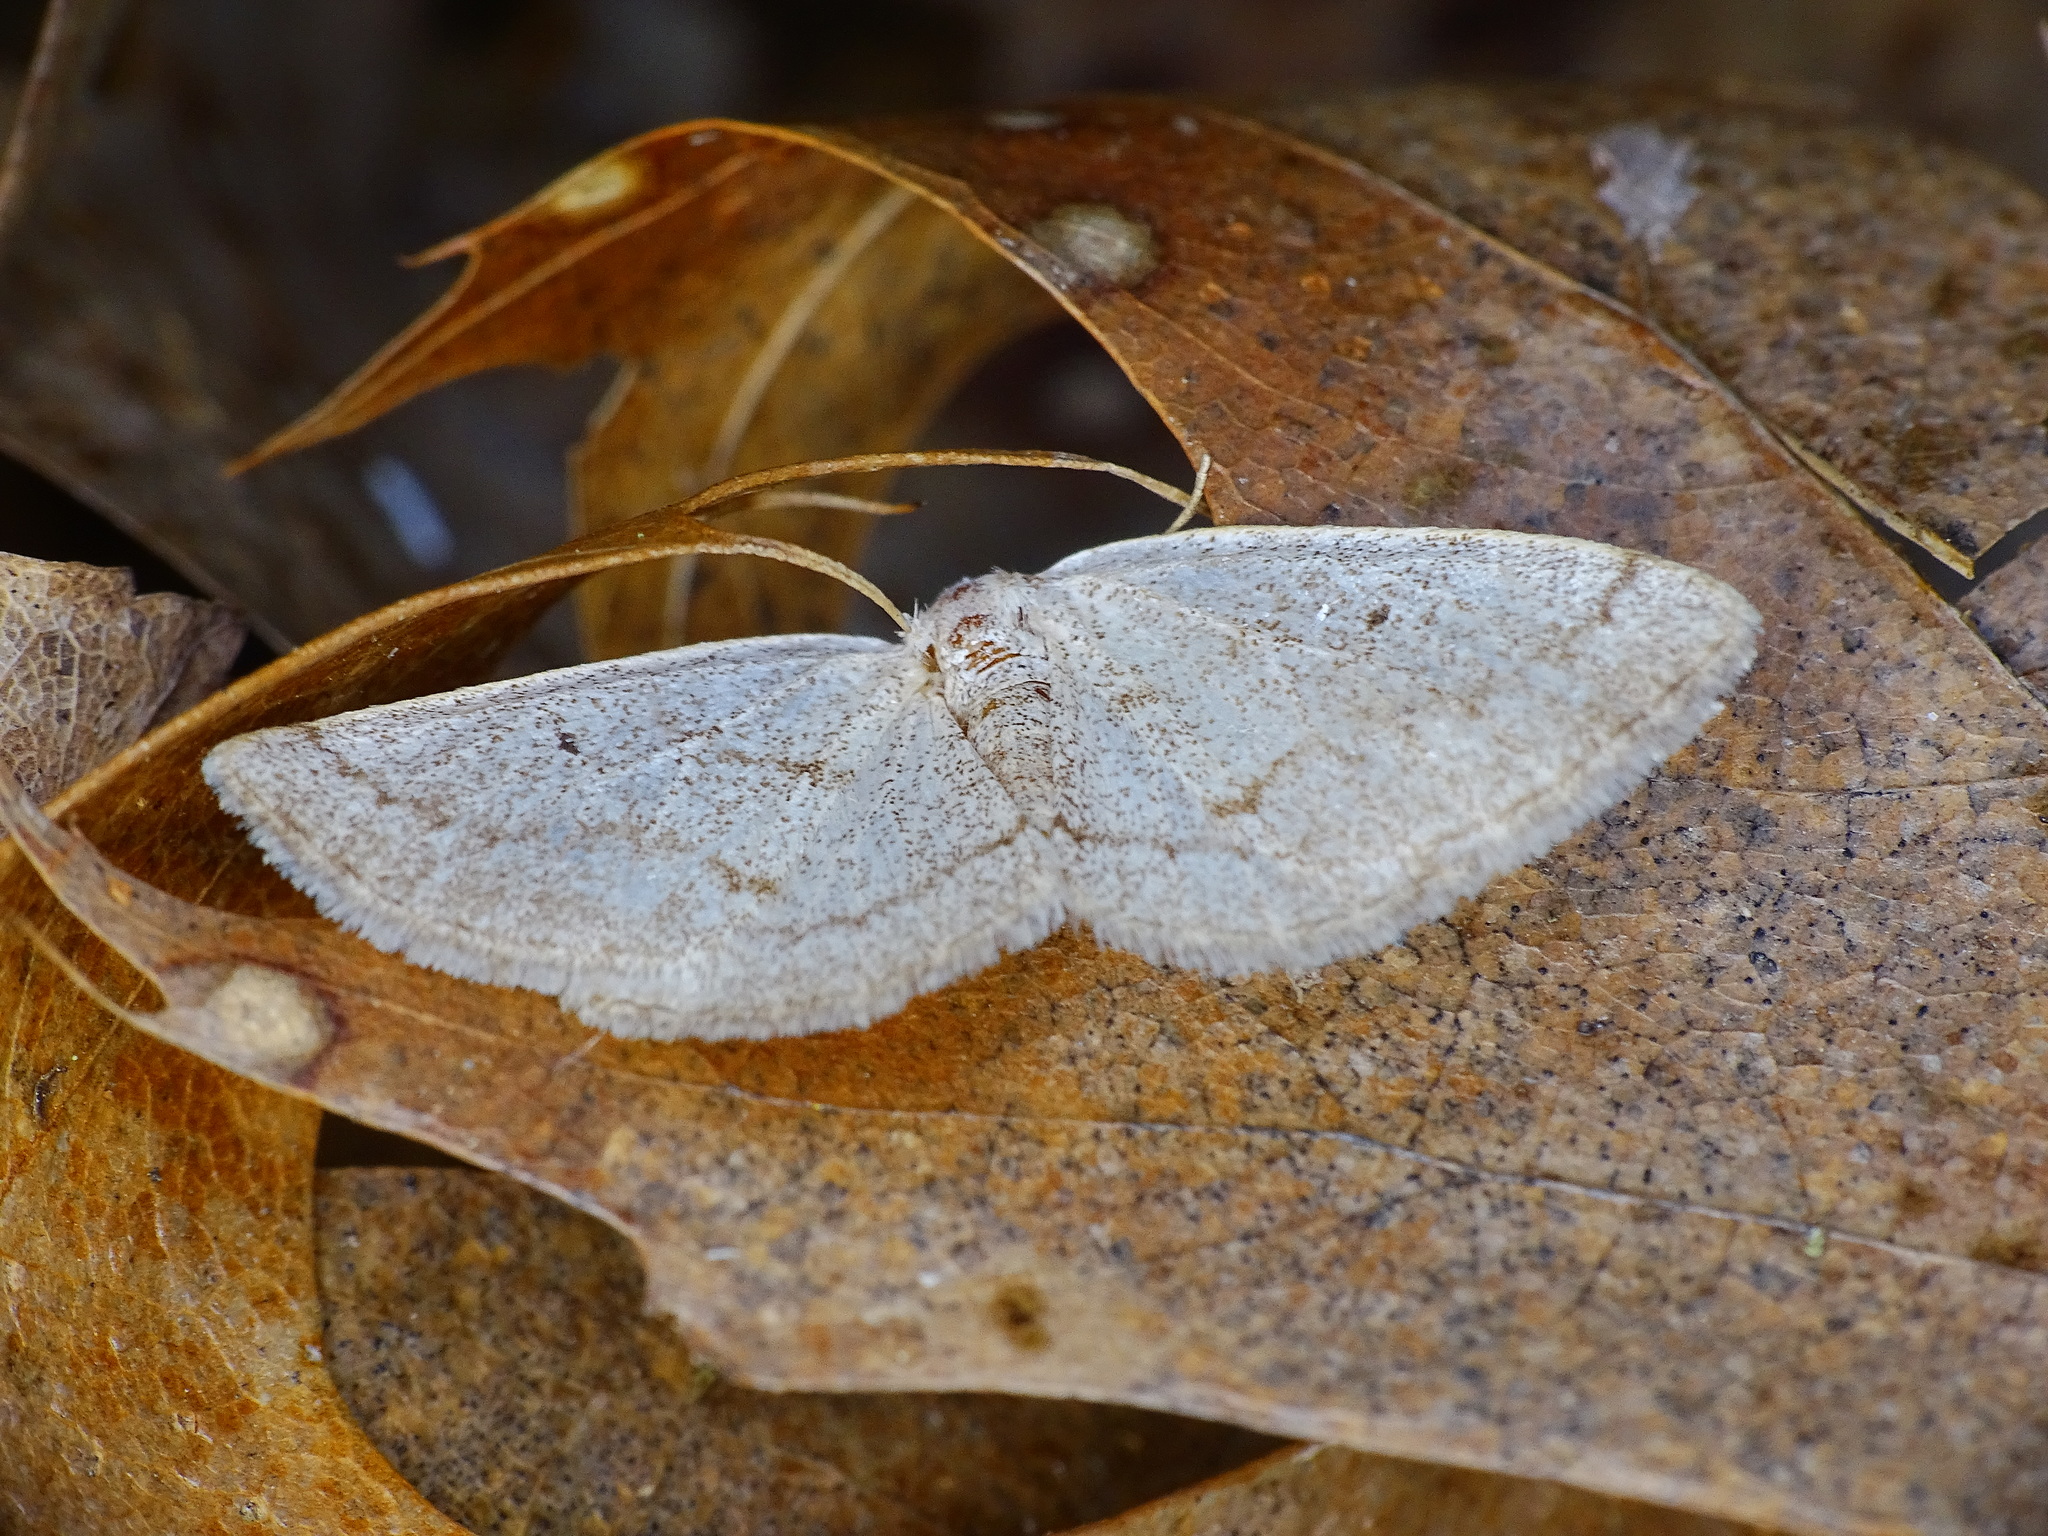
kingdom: Animalia
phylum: Arthropoda
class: Insecta
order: Lepidoptera
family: Geometridae
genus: Lomographa
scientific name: Lomographa glomeraria
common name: Gray spring moth
